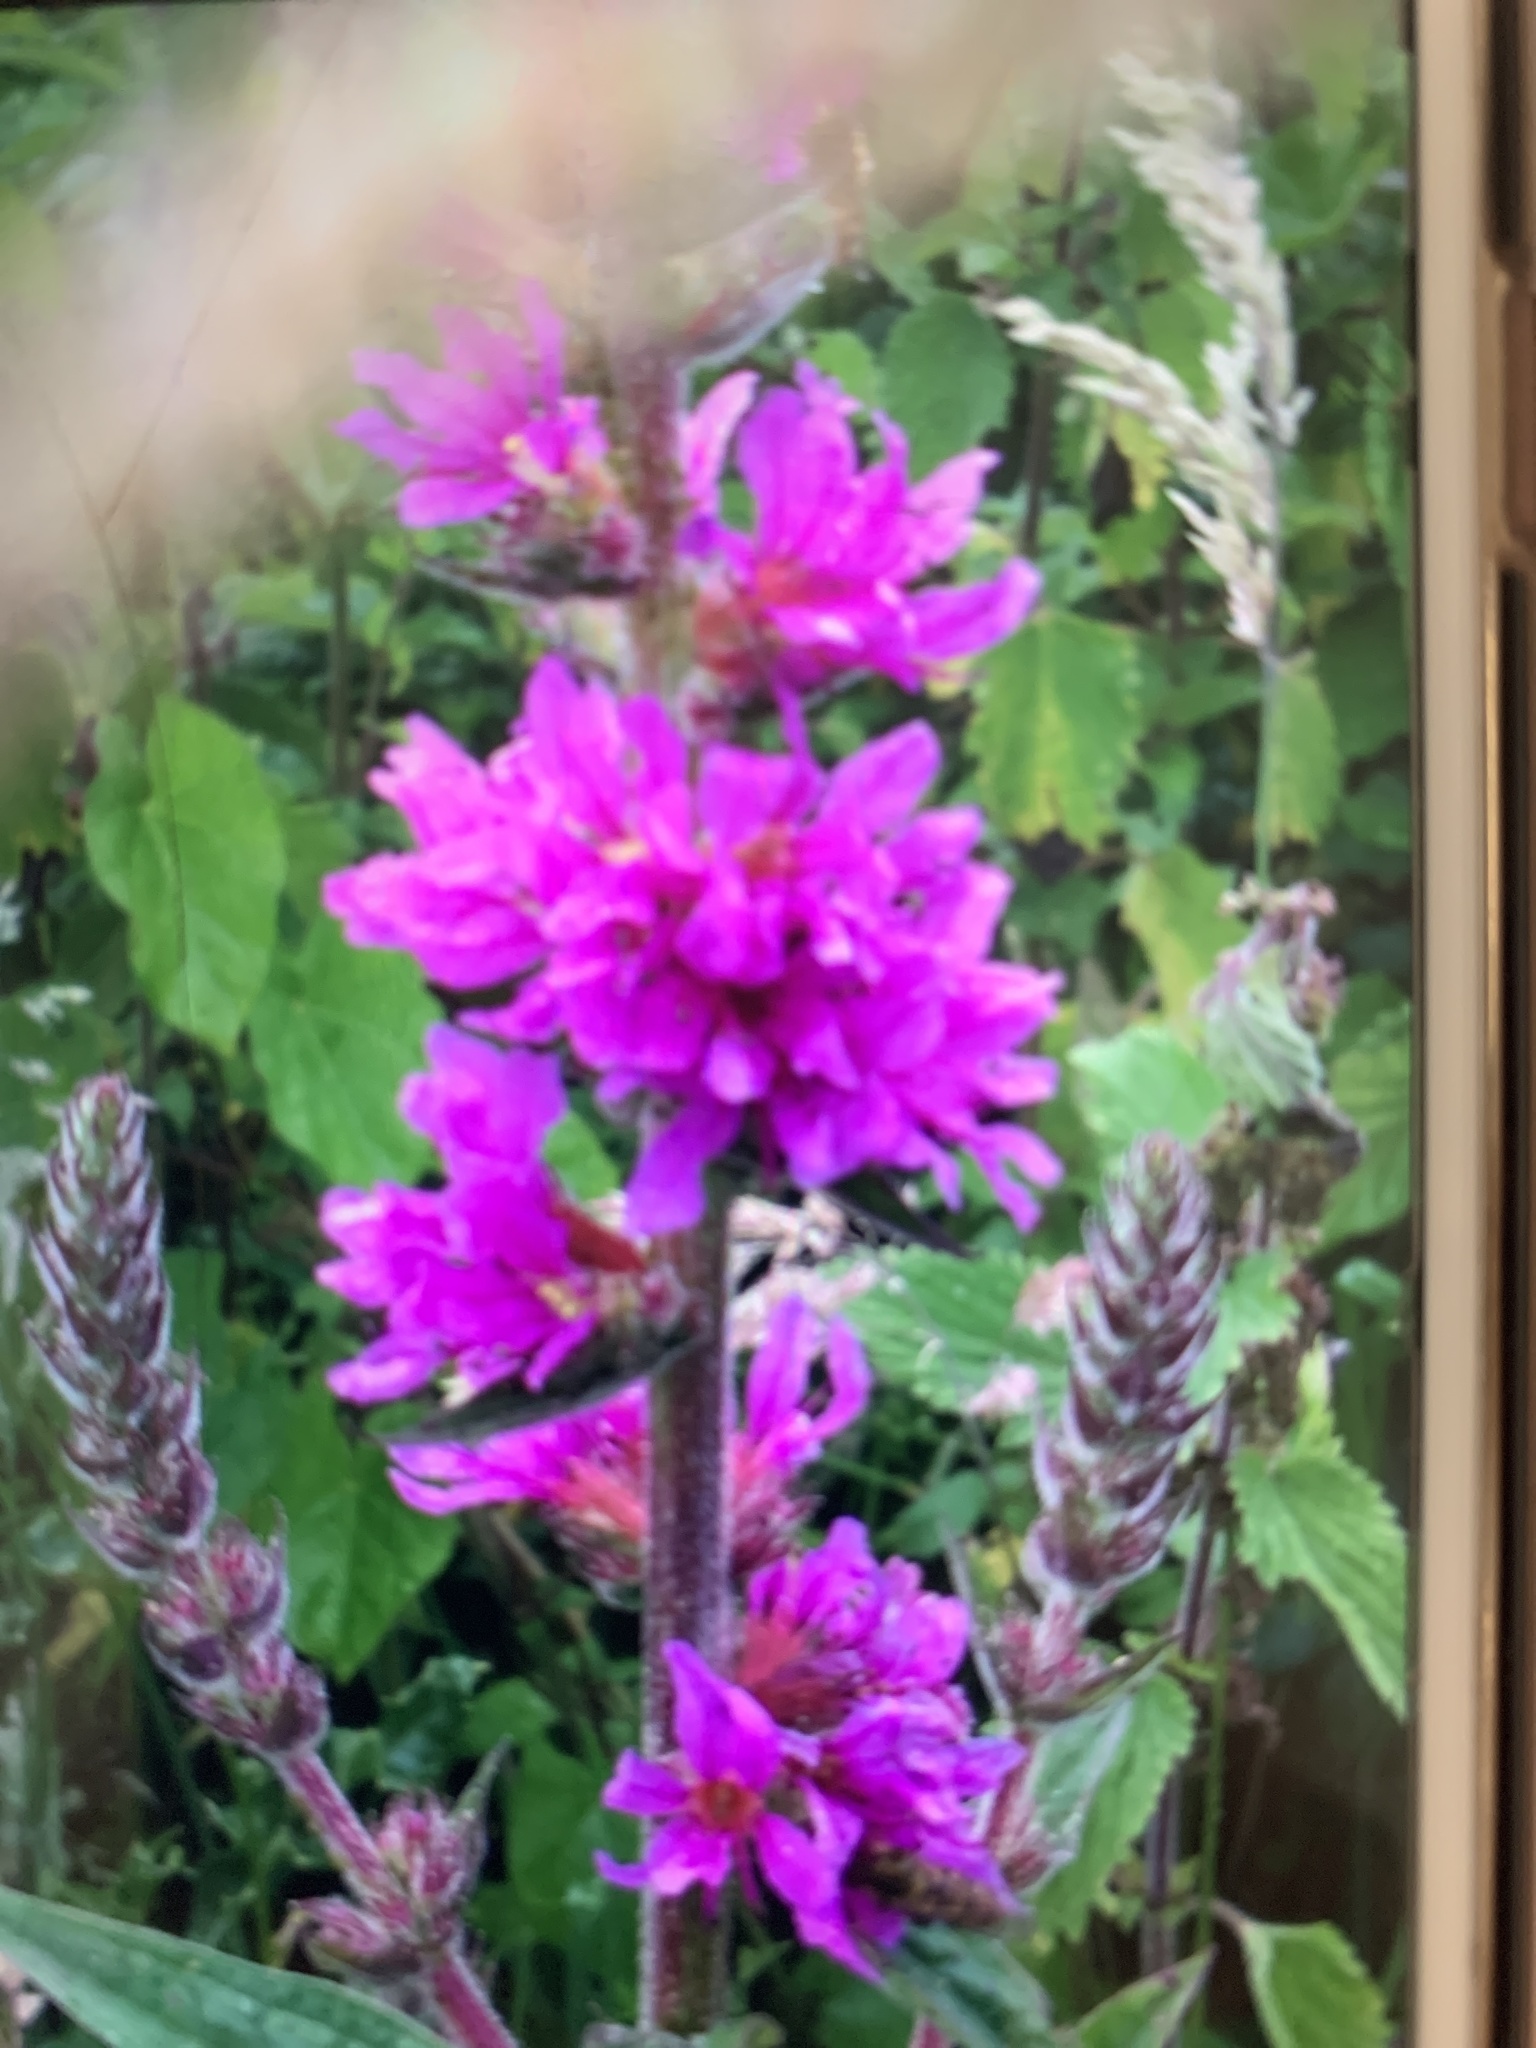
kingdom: Plantae
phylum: Tracheophyta
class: Magnoliopsida
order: Myrtales
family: Lythraceae
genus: Lythrum
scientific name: Lythrum salicaria
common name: Purple loosestrife
